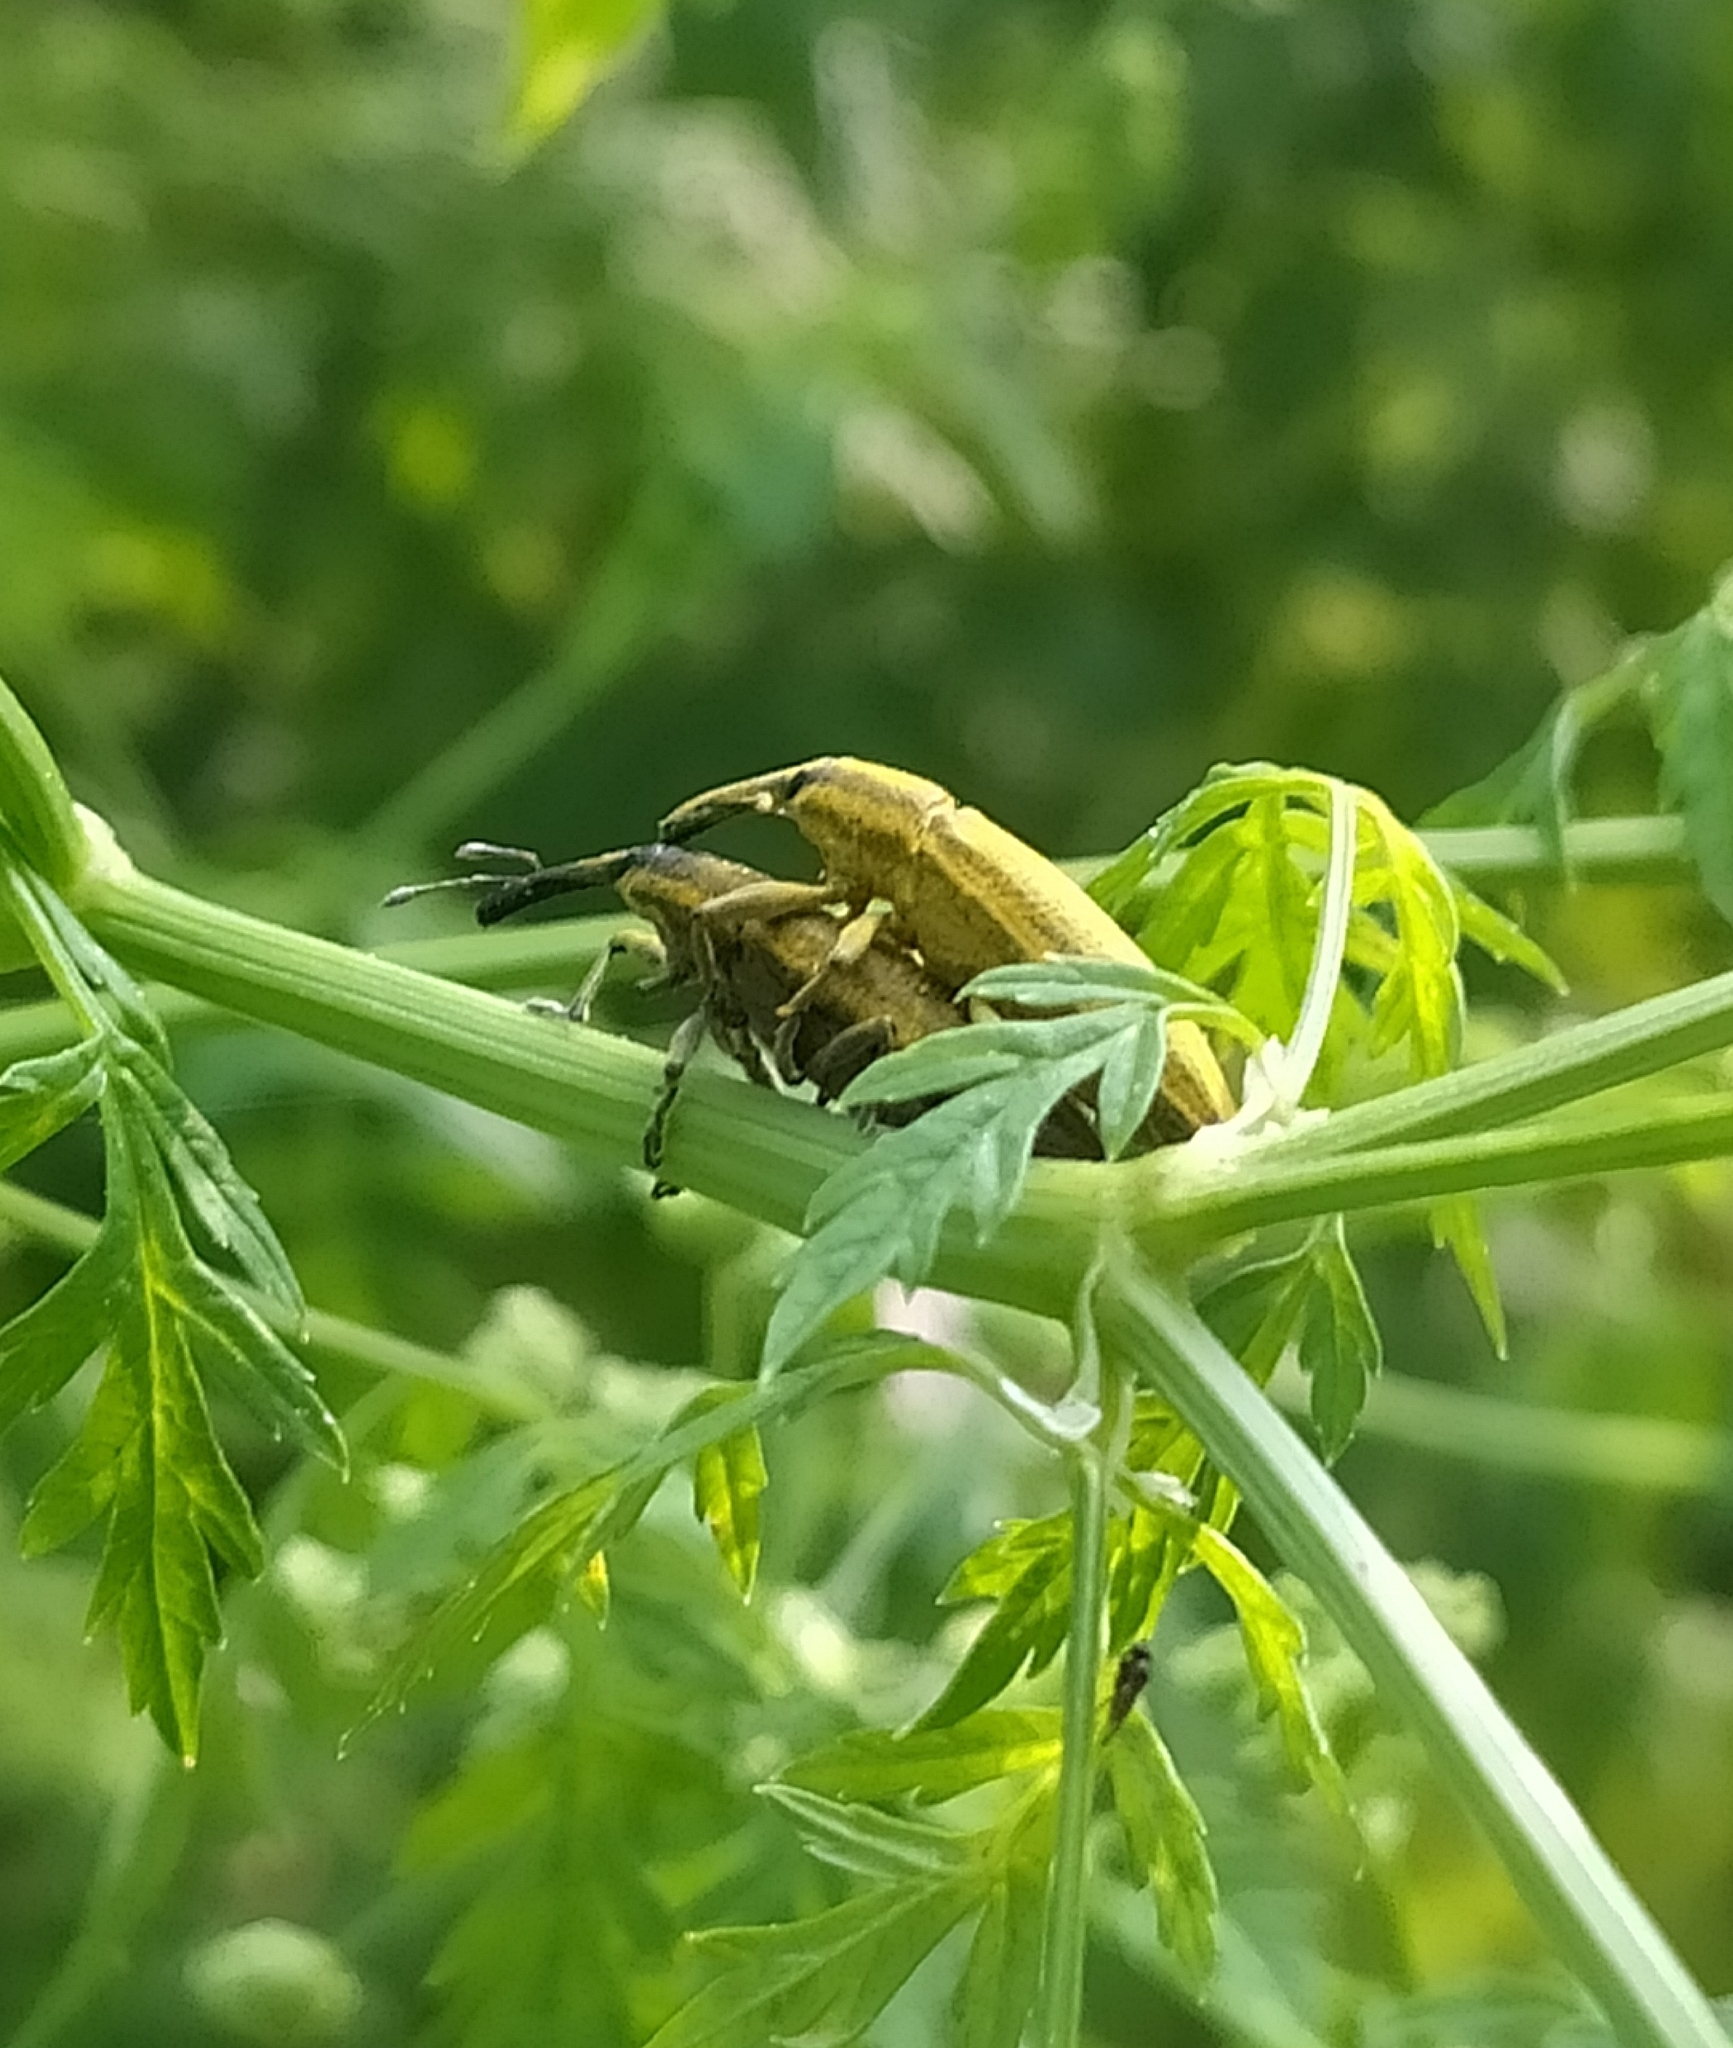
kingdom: Animalia
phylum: Arthropoda
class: Insecta
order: Coleoptera
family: Curculionidae
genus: Lixus
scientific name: Lixus iridis
